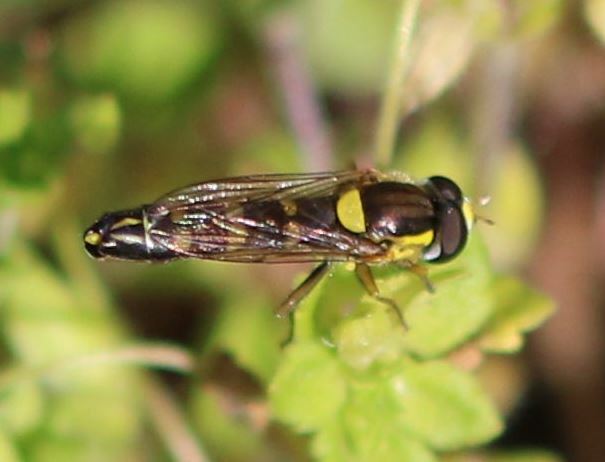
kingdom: Animalia
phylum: Arthropoda
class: Insecta
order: Diptera
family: Syrphidae
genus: Sphaerophoria
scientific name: Sphaerophoria scripta
